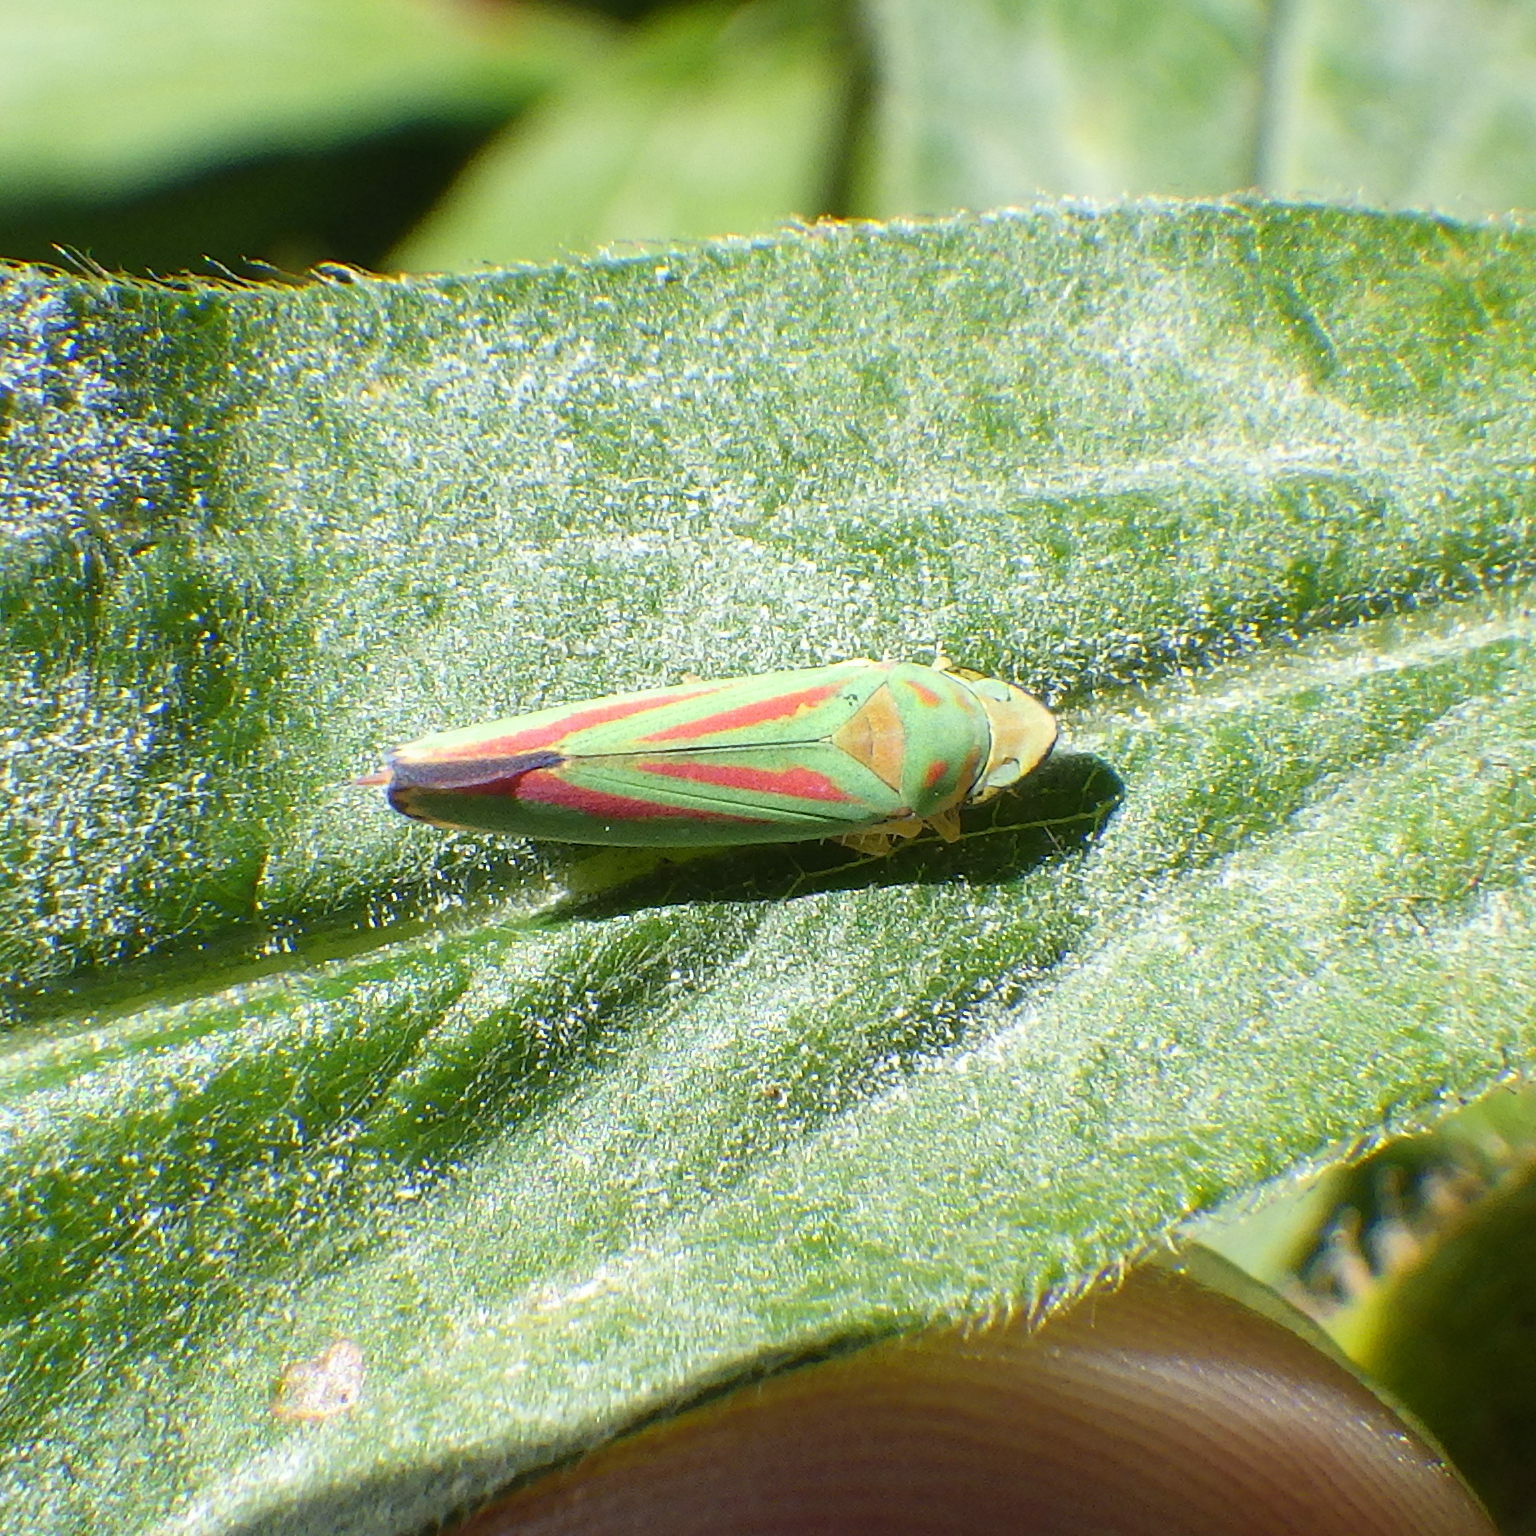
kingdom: Animalia
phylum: Arthropoda
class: Insecta
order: Hemiptera
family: Cicadellidae
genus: Graphocephala
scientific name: Graphocephala fennahi
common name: Rhododendron leafhopper
